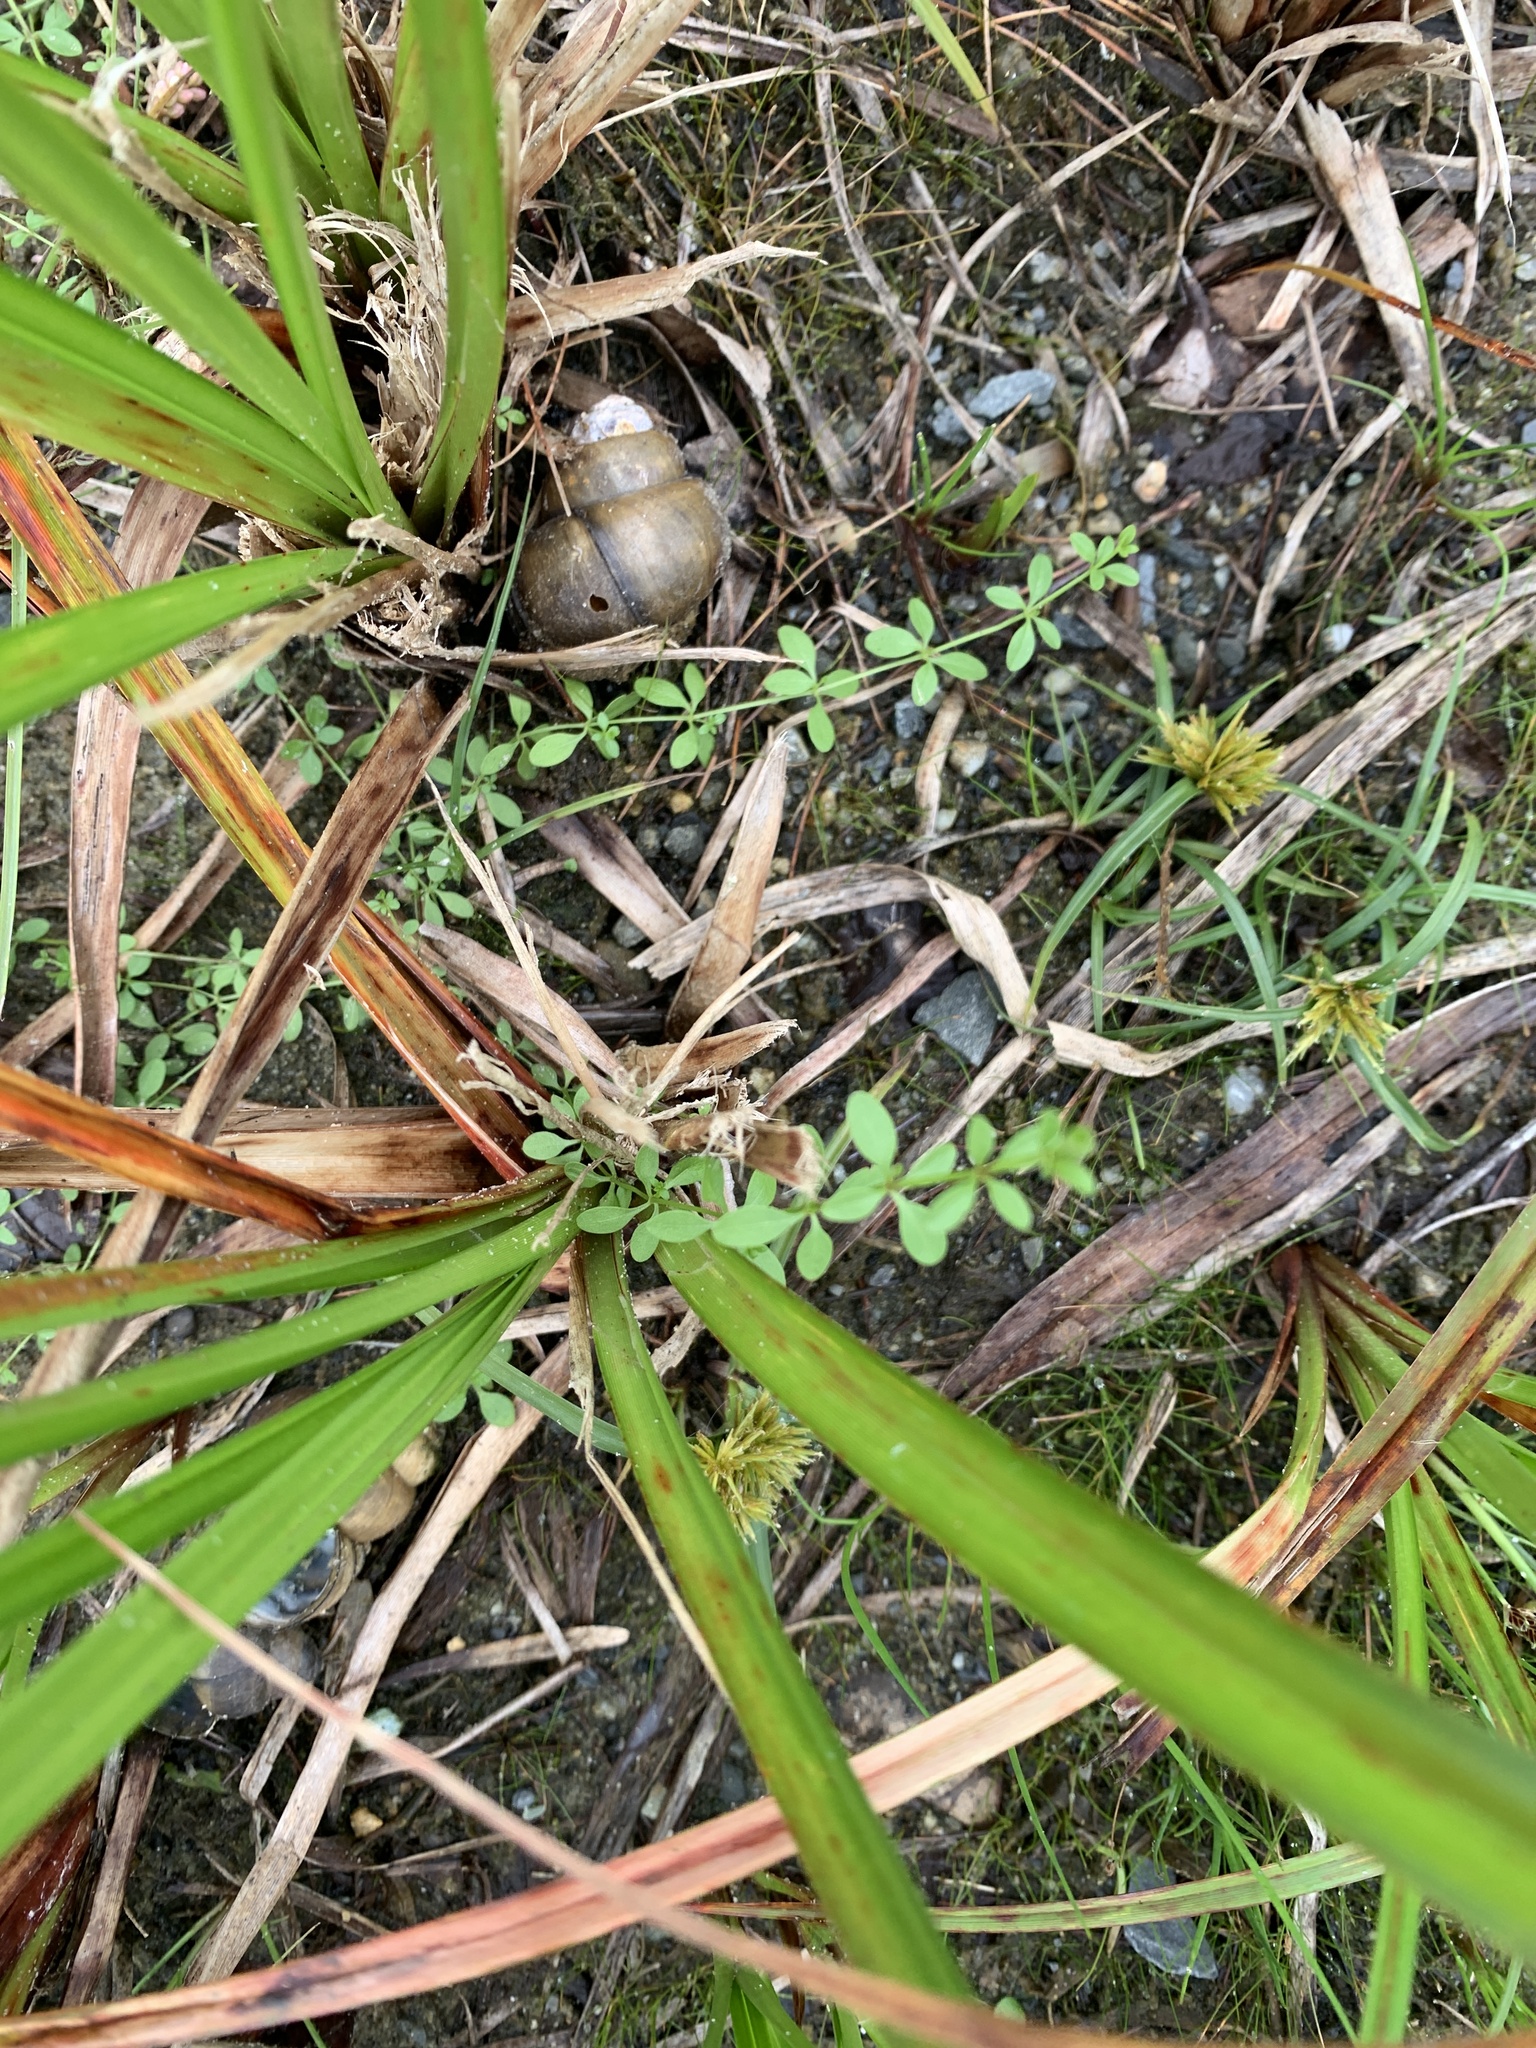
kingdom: Plantae
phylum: Tracheophyta
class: Magnoliopsida
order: Gentianales
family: Rubiaceae
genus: Galium
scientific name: Galium palustre
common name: Common marsh-bedstraw
